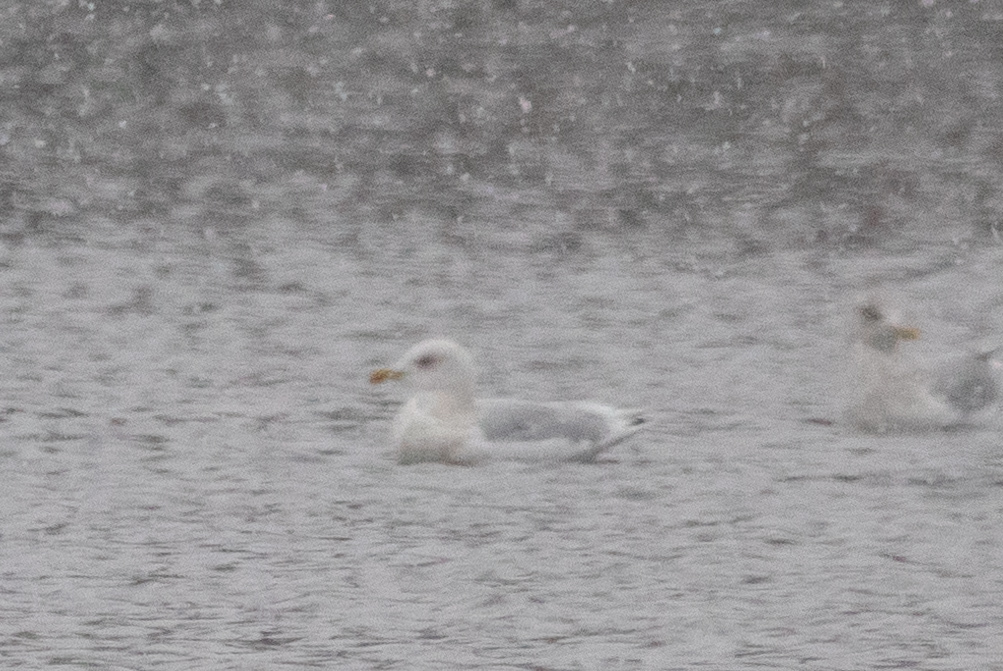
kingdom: Animalia
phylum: Chordata
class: Aves
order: Charadriiformes
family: Laridae
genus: Larus
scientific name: Larus glaucoides
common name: Iceland gull
